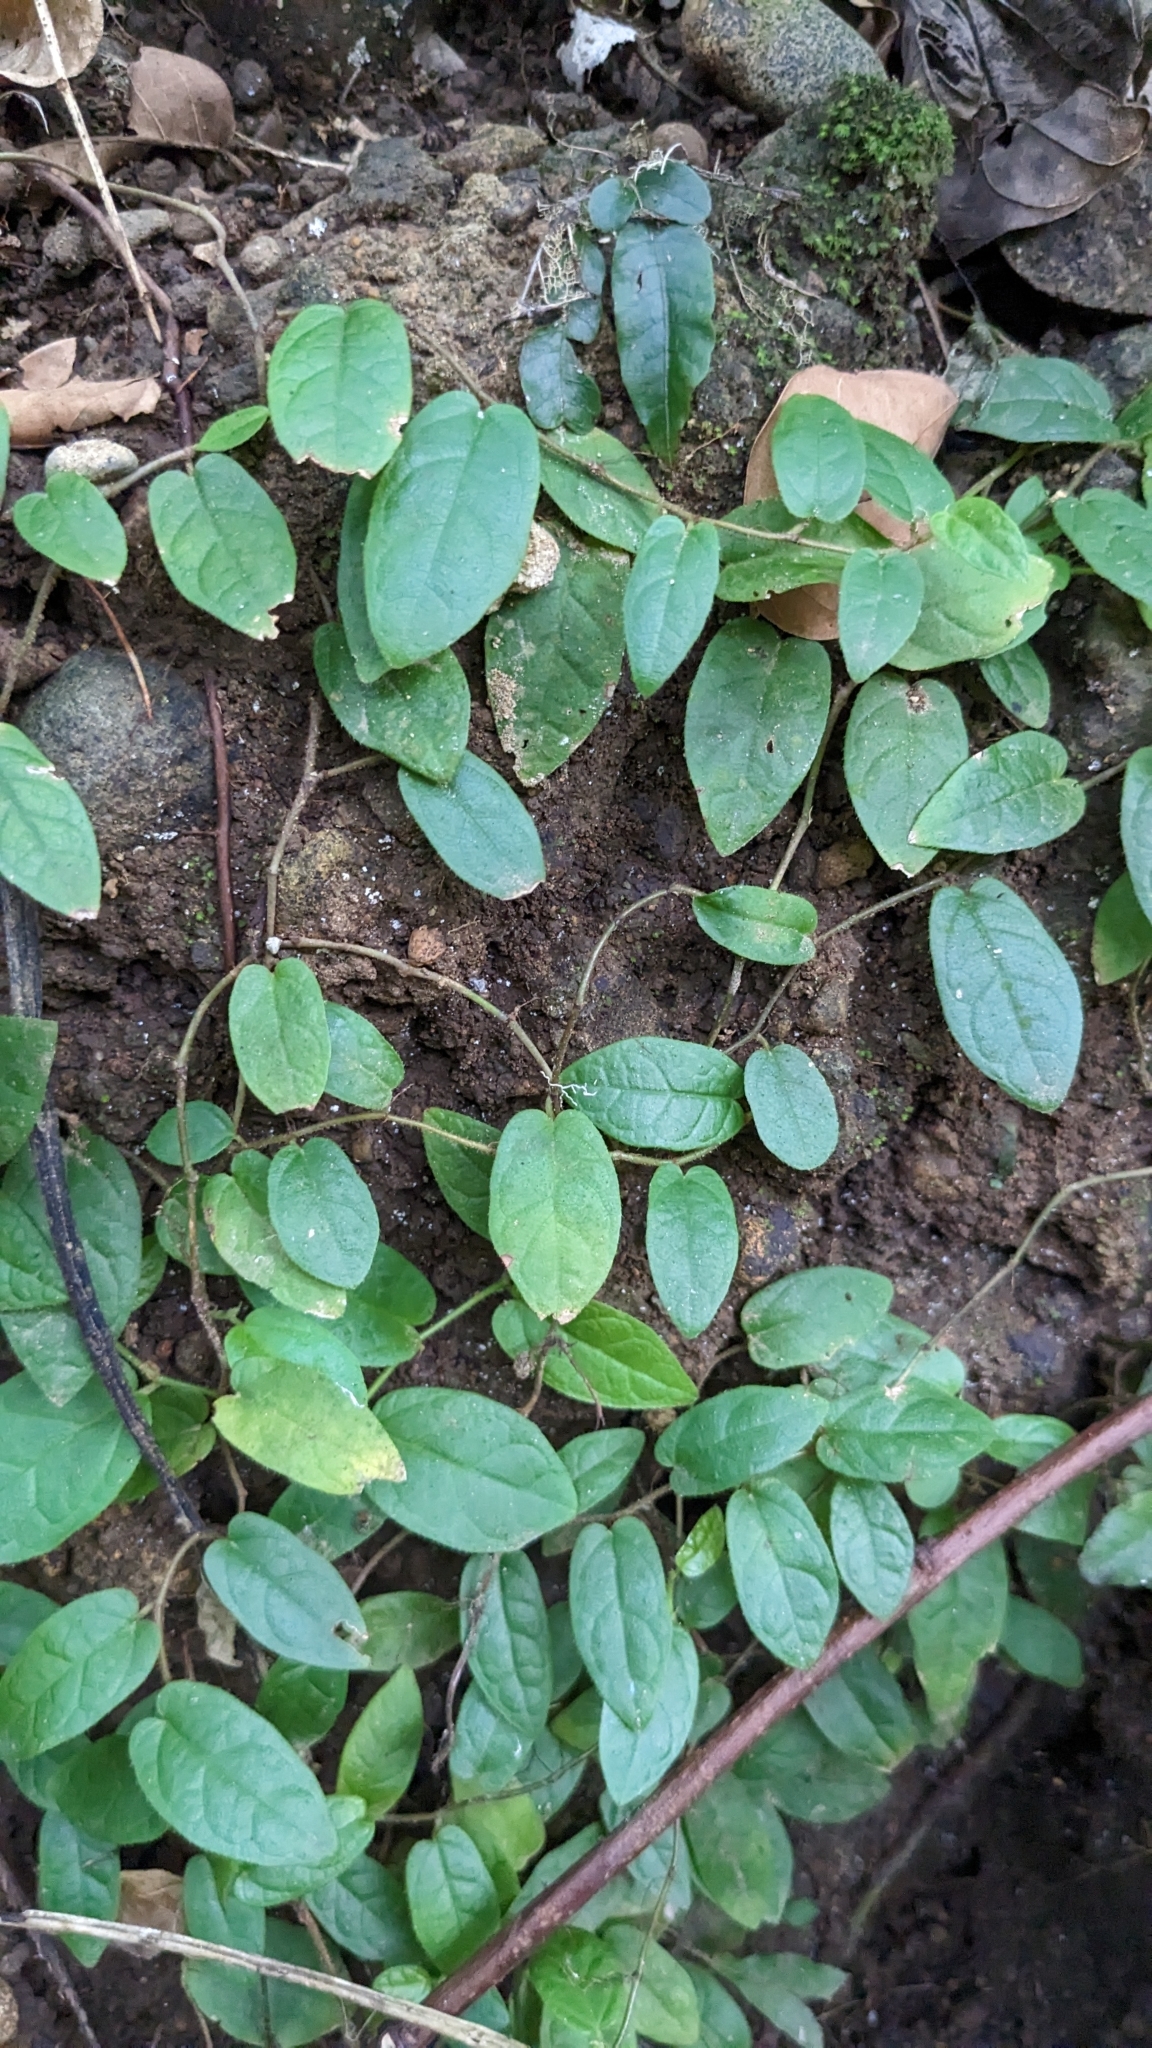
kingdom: Plantae
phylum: Tracheophyta
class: Magnoliopsida
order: Rosales
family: Moraceae
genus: Ficus
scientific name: Ficus trichocarpa
